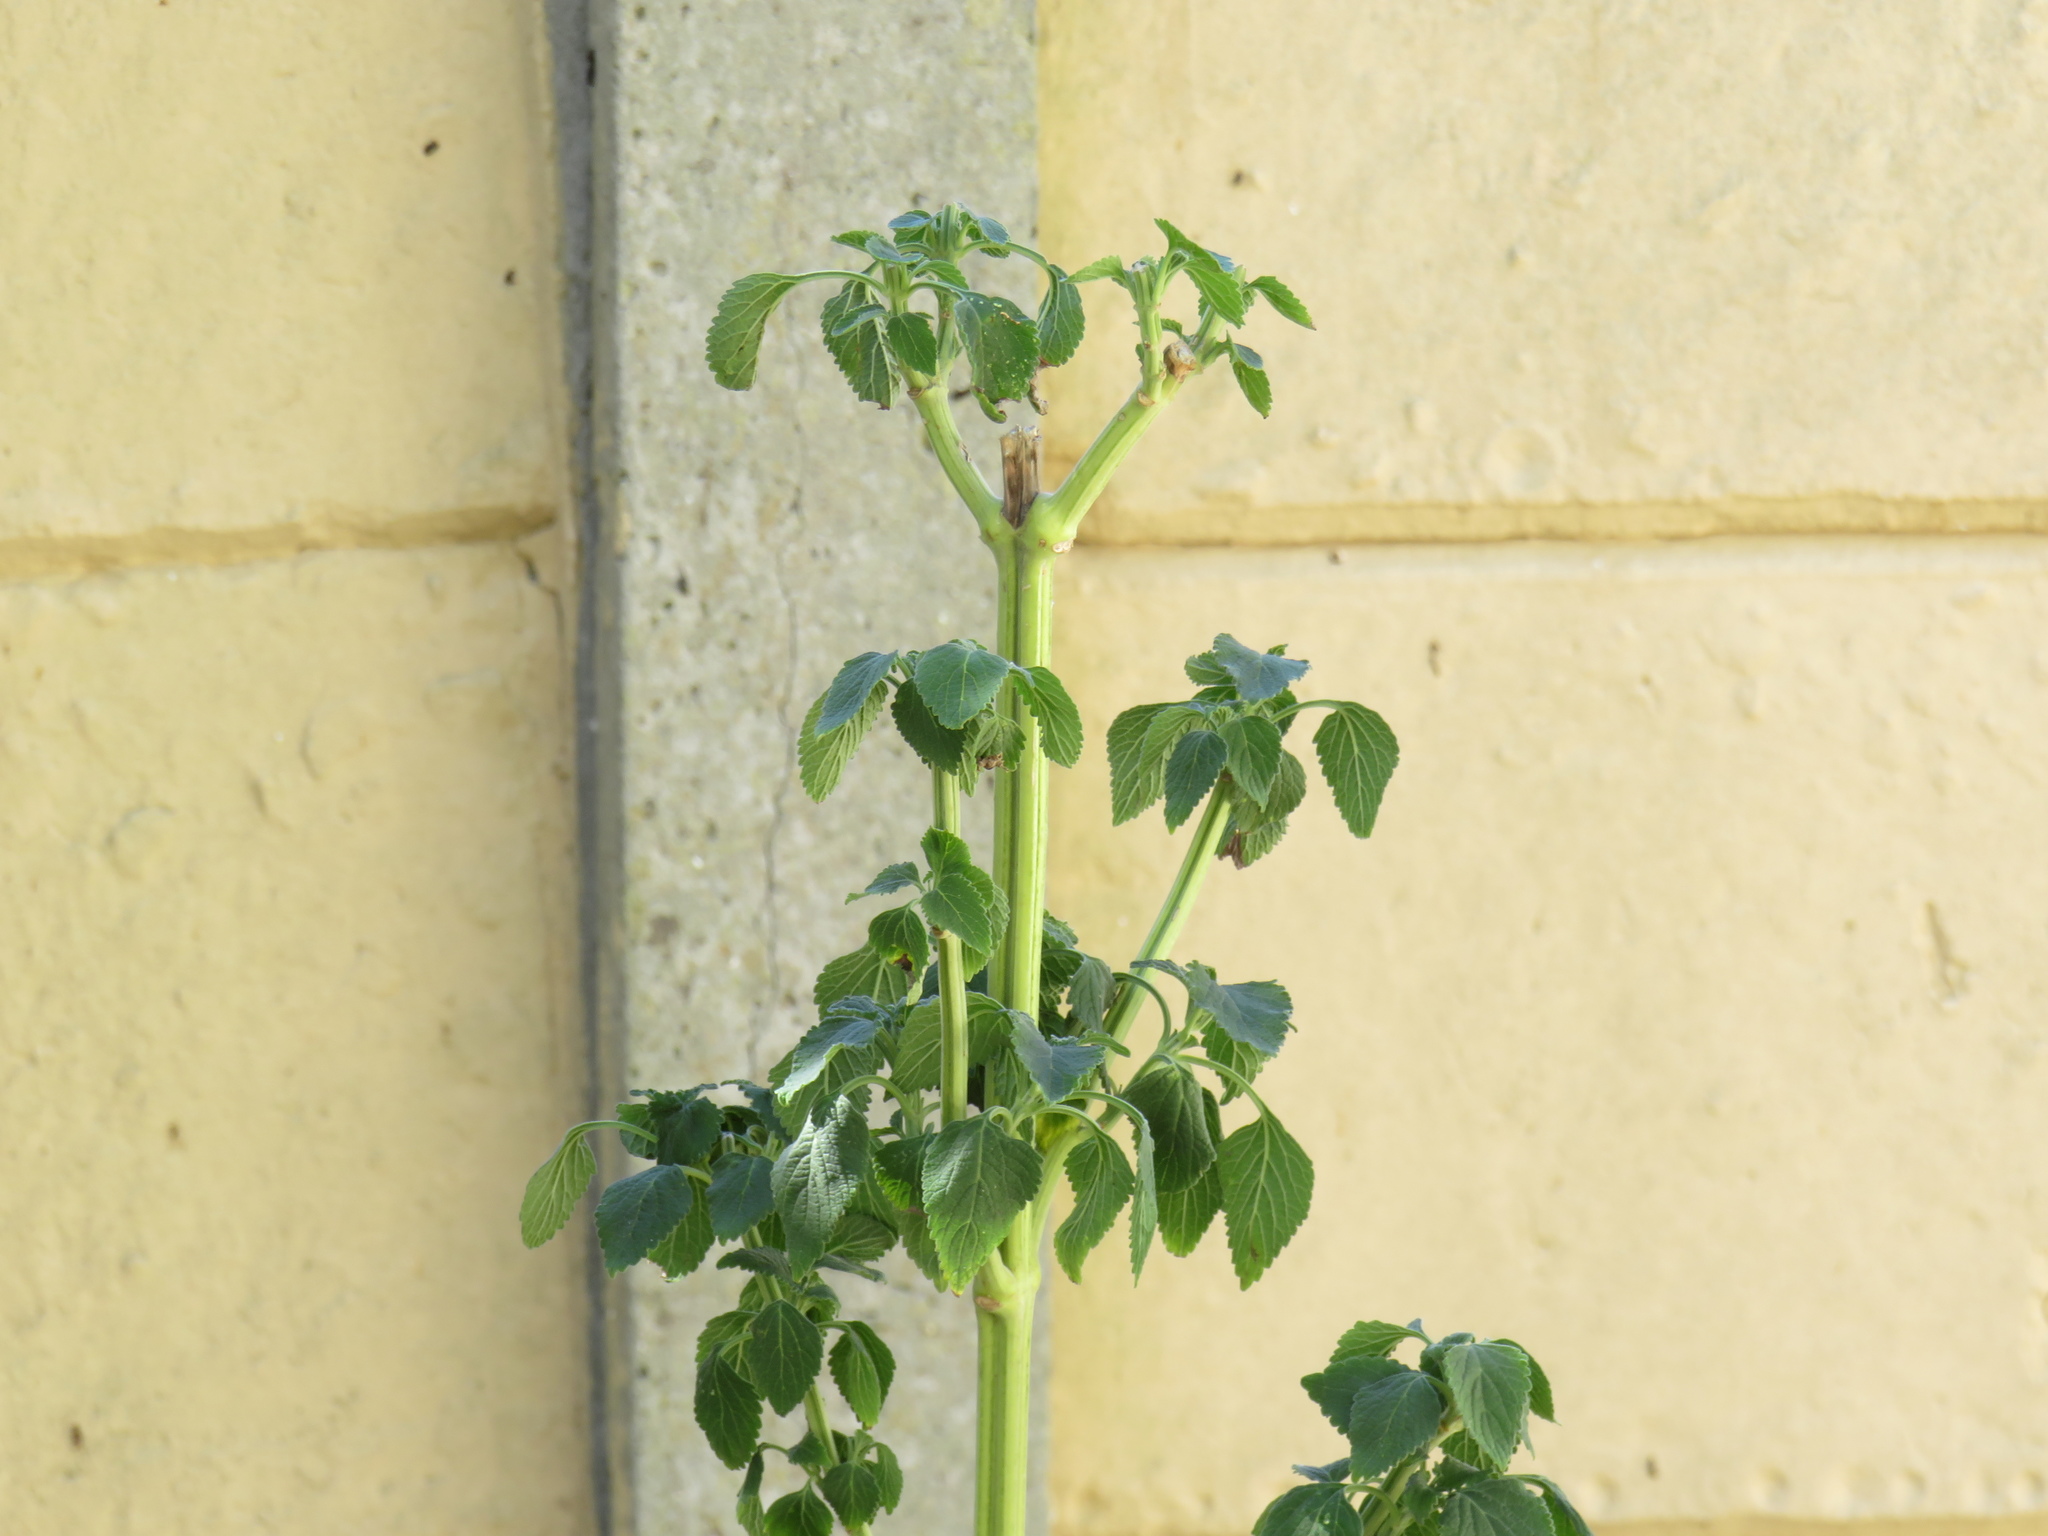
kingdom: Plantae
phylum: Tracheophyta
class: Magnoliopsida
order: Lamiales
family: Lamiaceae
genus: Leonotis
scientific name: Leonotis nepetifolia
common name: Christmas candlestick
